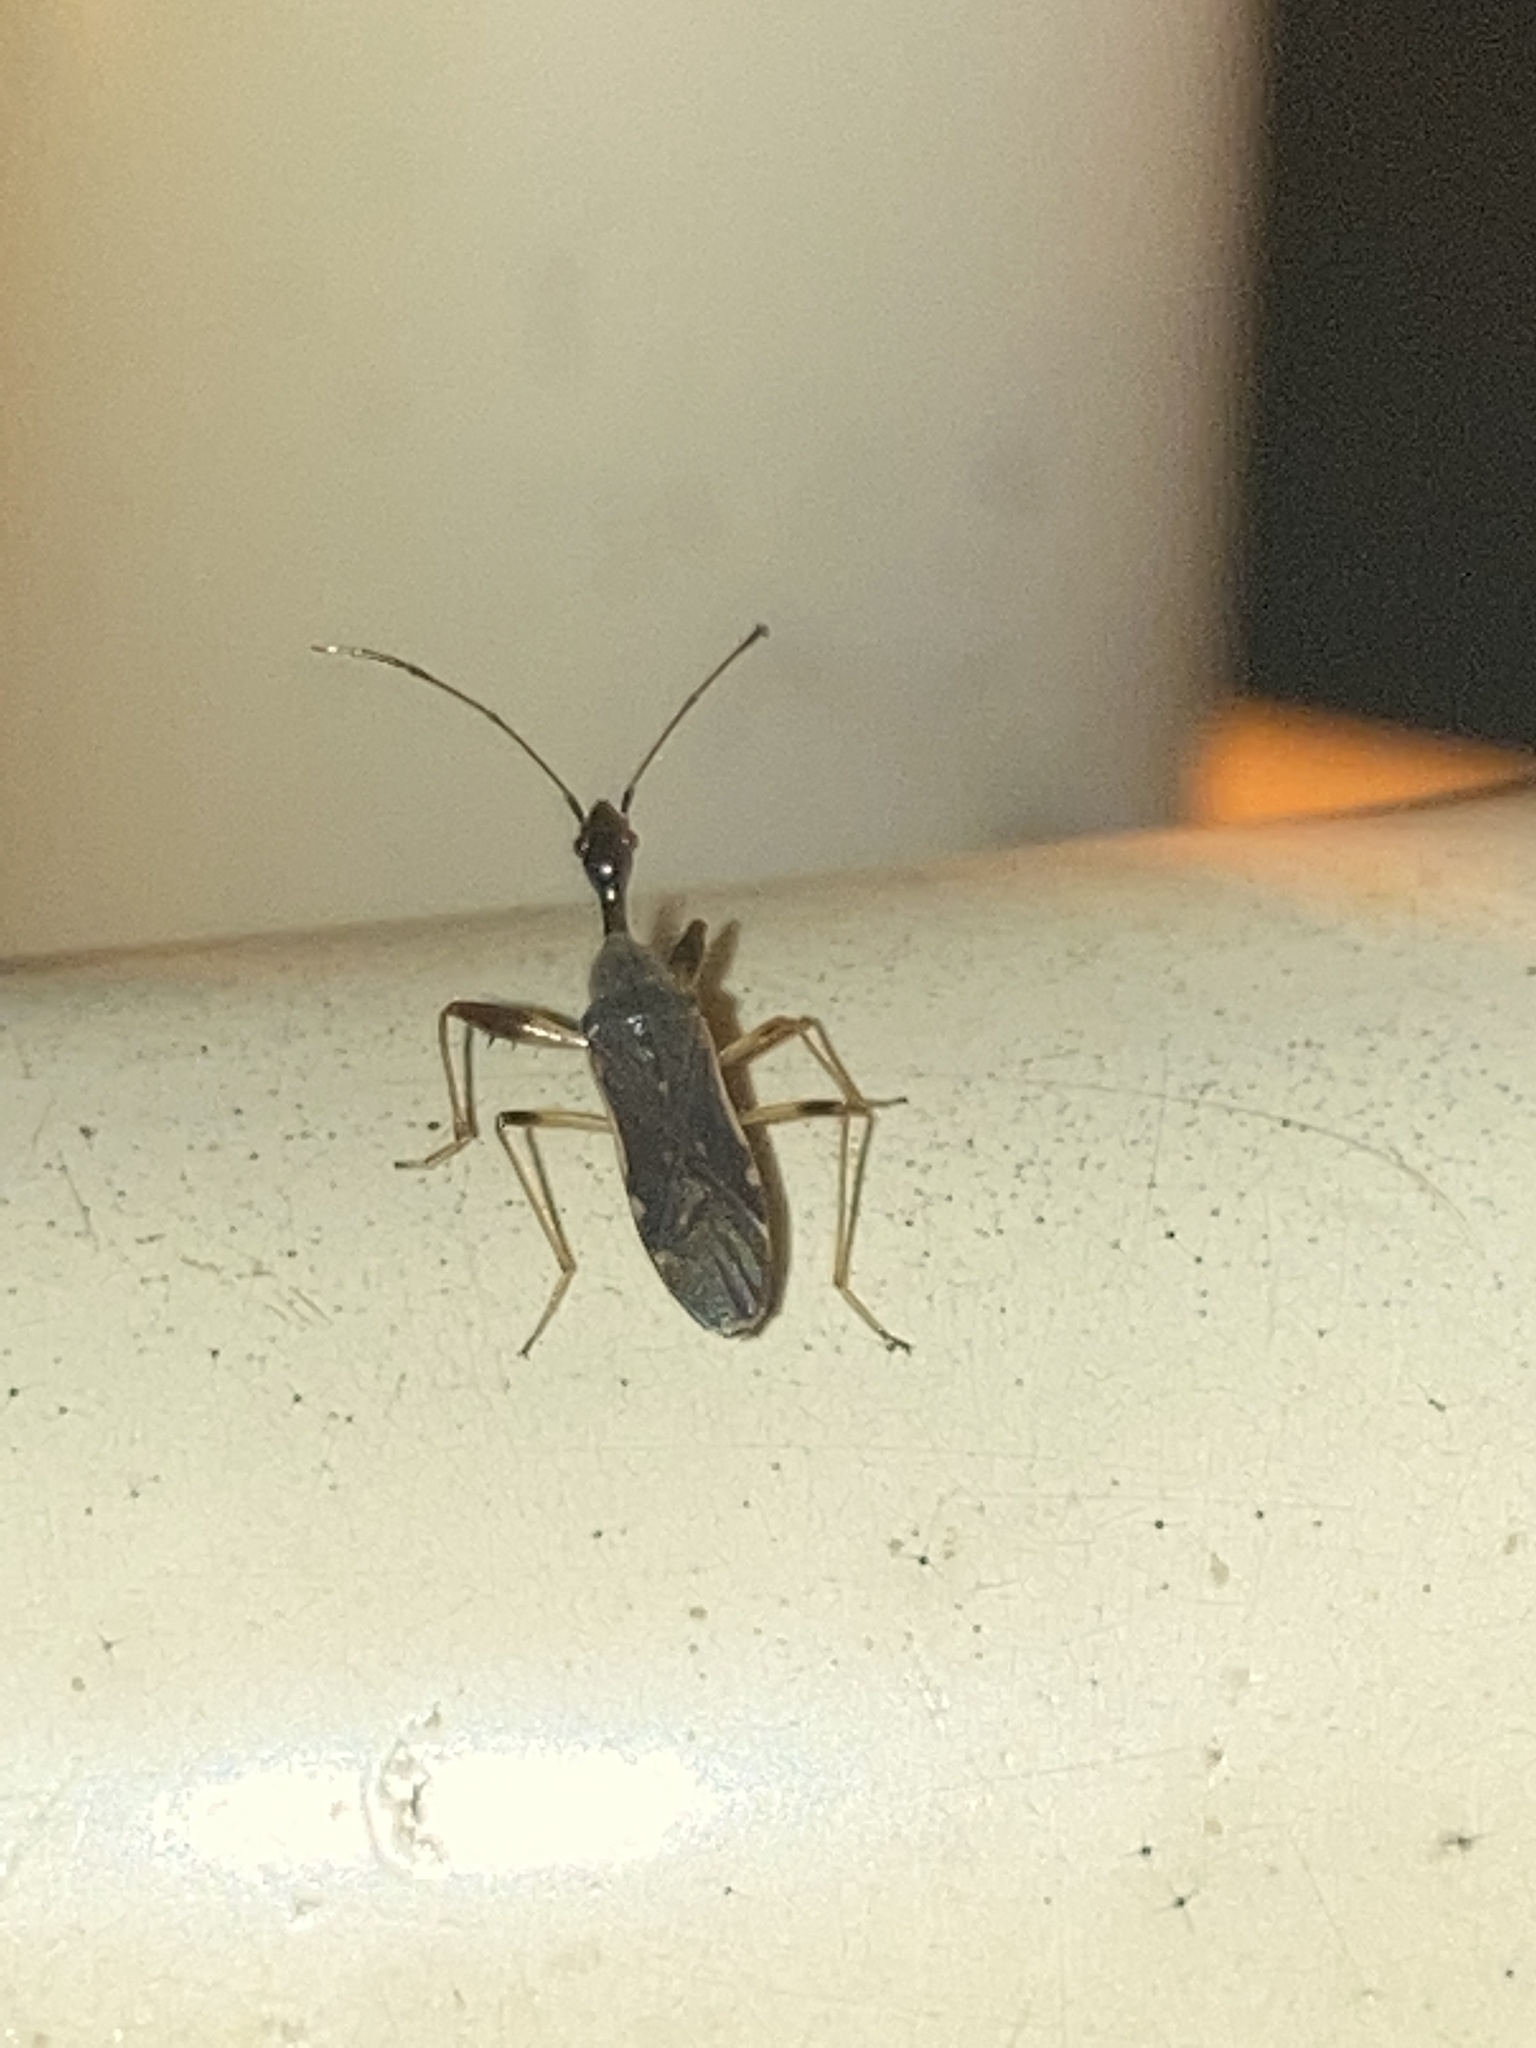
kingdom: Animalia
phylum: Arthropoda
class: Insecta
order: Hemiptera
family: Rhyparochromidae
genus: Myodocha
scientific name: Myodocha serripes
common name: Long-necked seed bug
